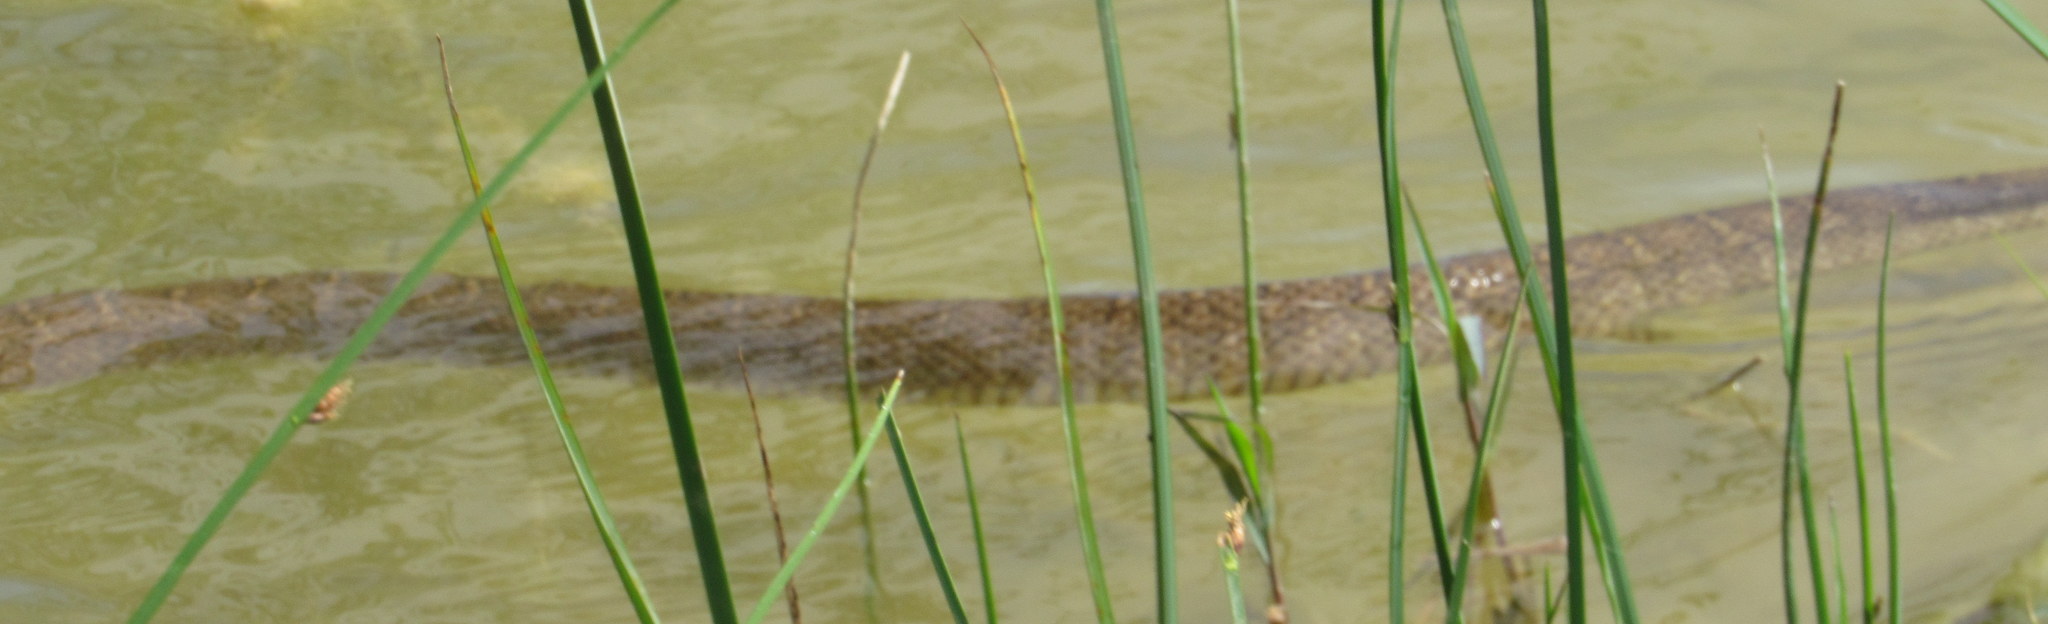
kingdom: Animalia
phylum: Chordata
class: Squamata
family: Colubridae
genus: Nerodia
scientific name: Nerodia erythrogaster
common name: Plainbelly water snake
